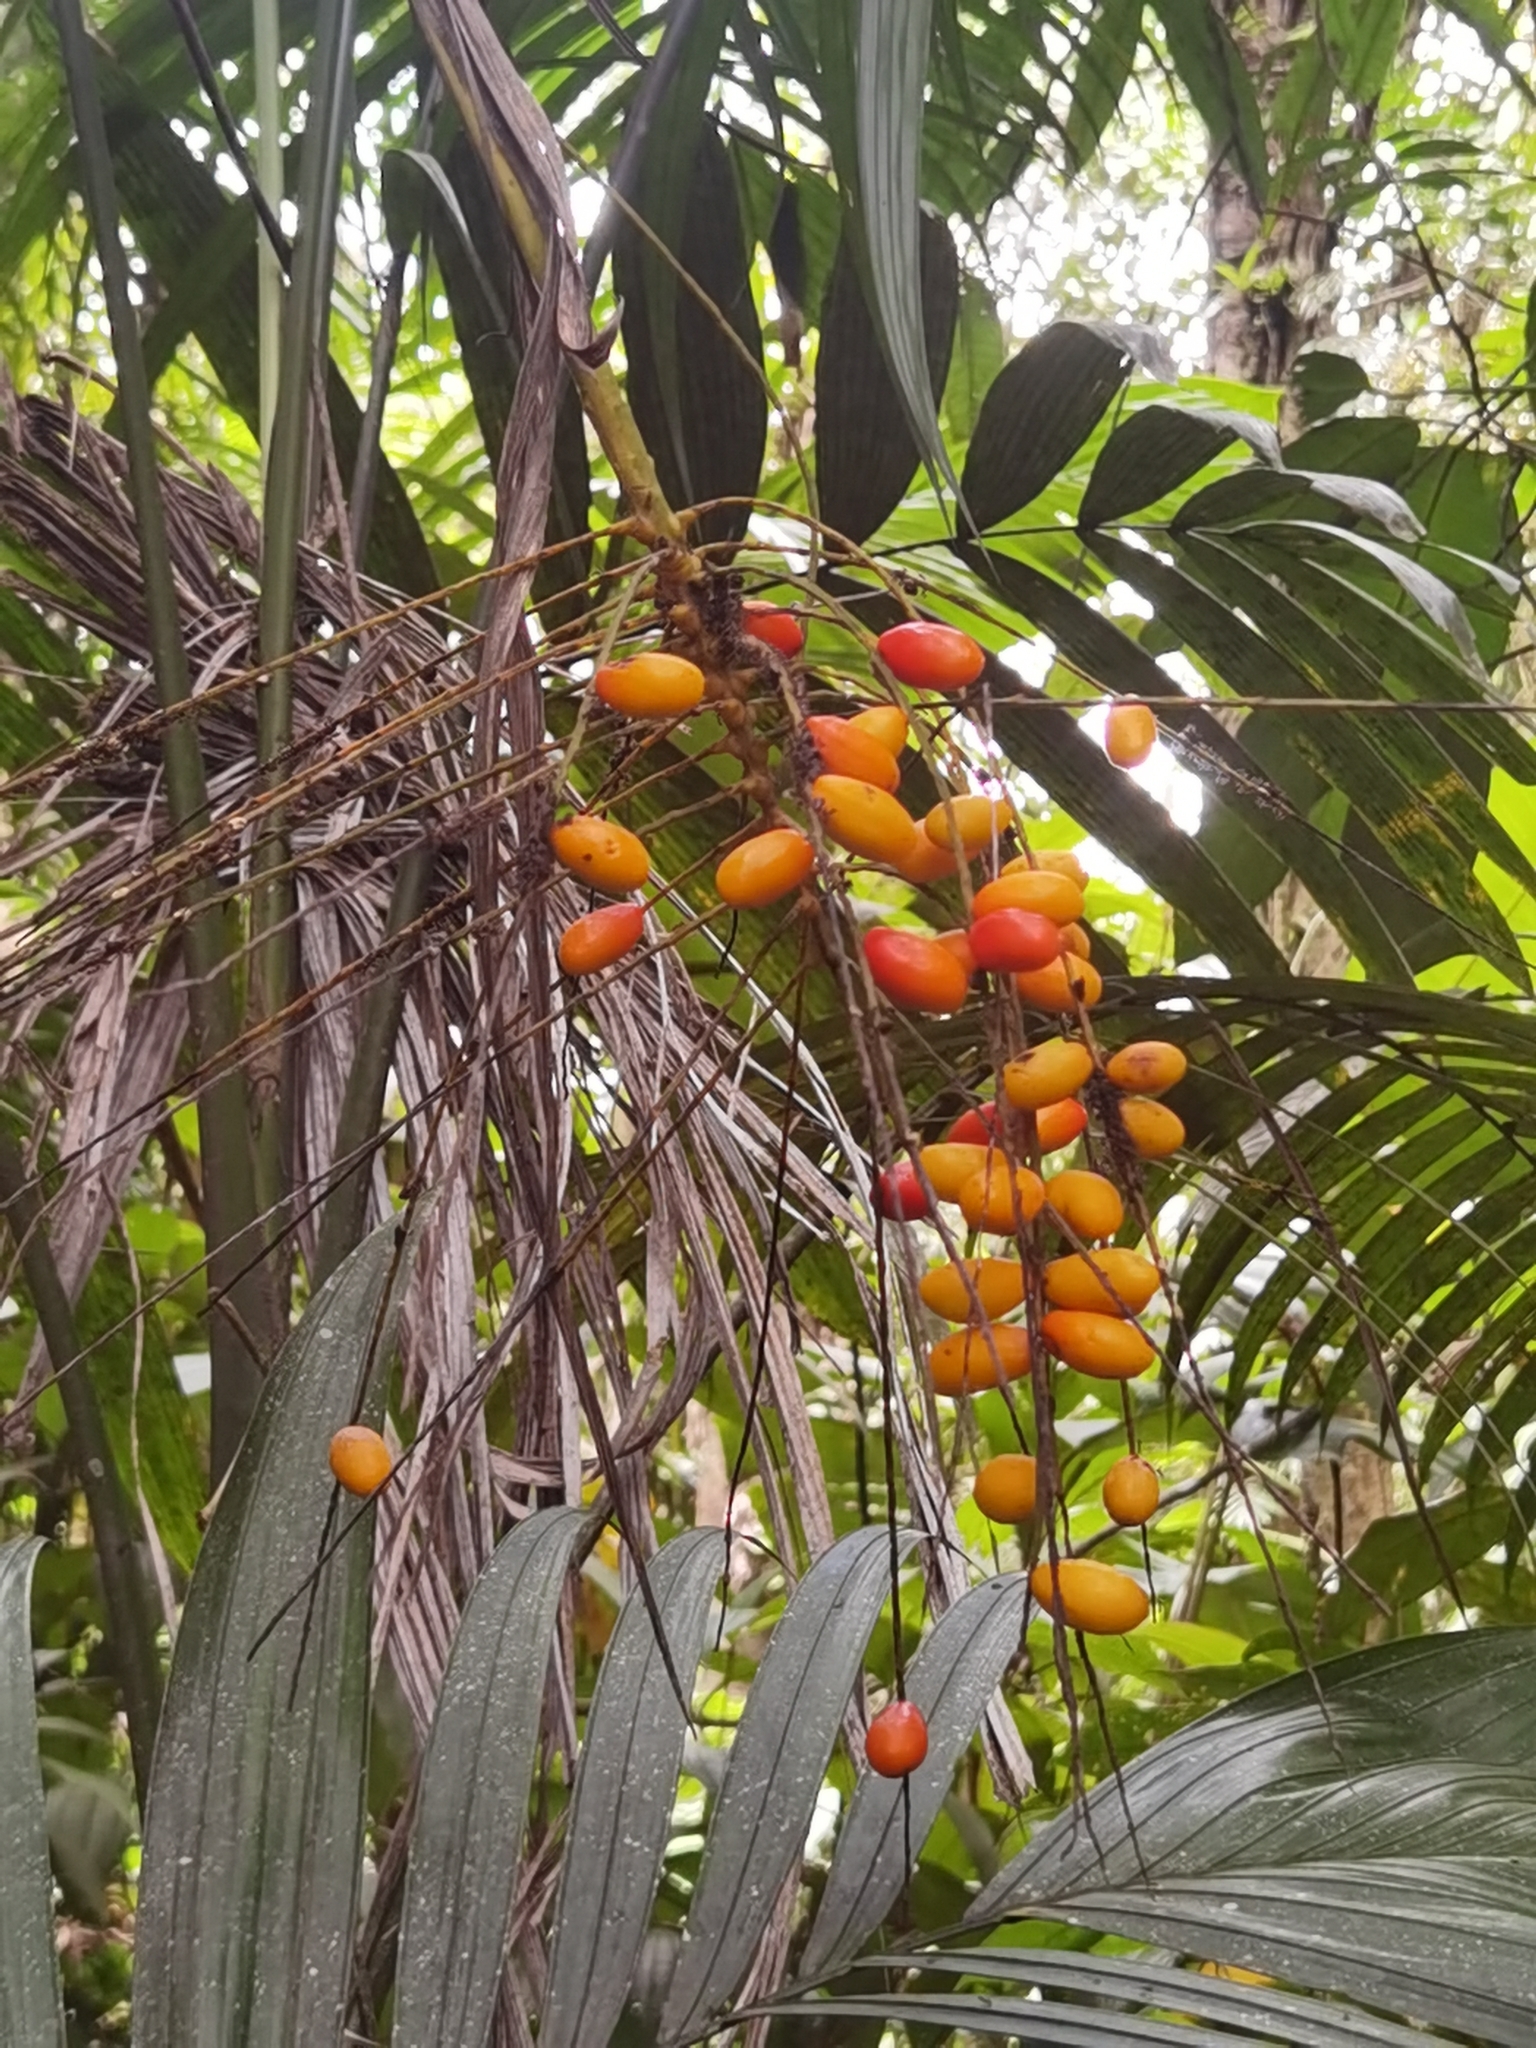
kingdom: Plantae
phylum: Tracheophyta
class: Liliopsida
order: Arecales
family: Arecaceae
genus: Synechanthus
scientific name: Synechanthus warscewiczianus
